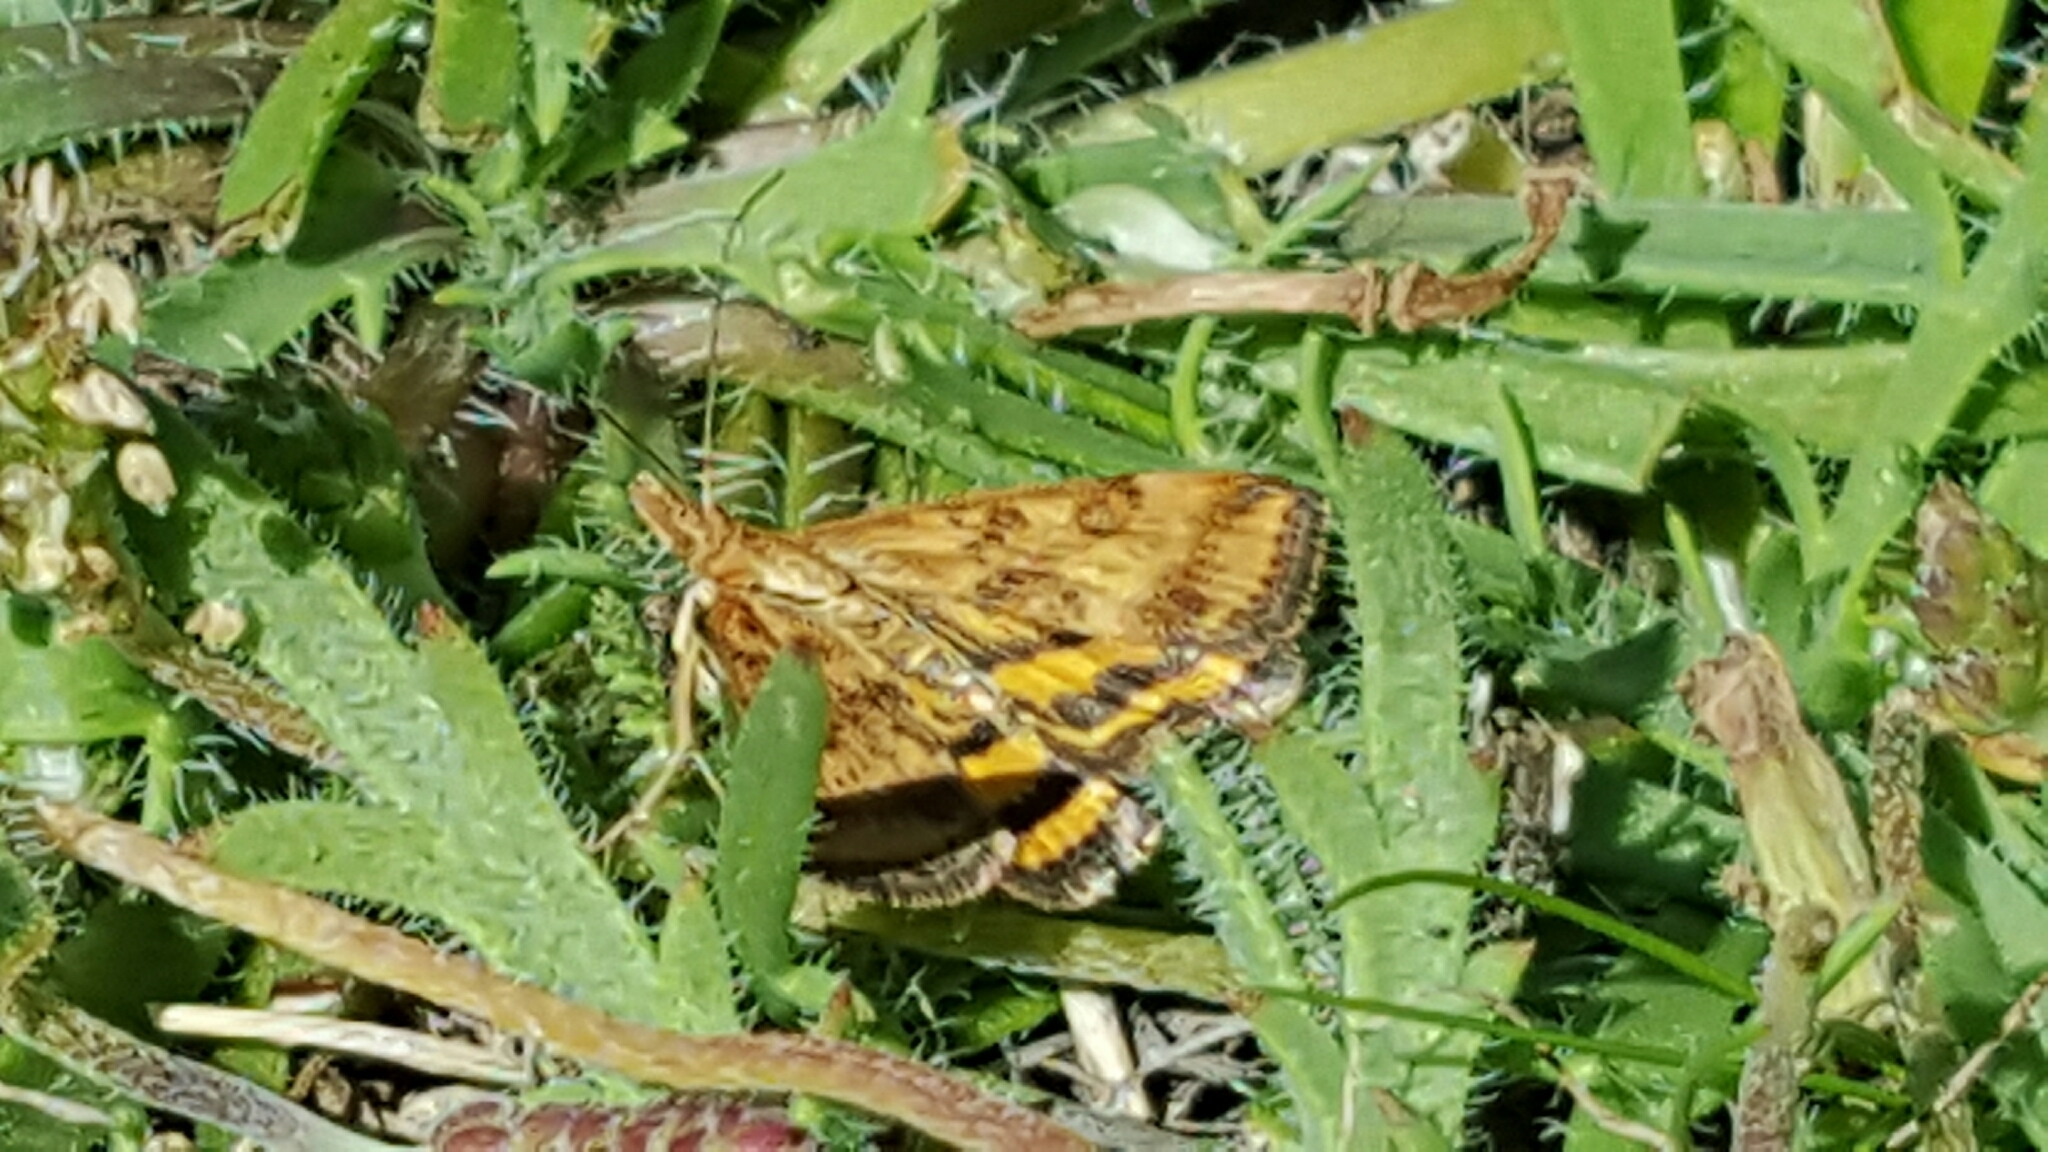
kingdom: Animalia
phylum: Arthropoda
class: Insecta
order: Lepidoptera
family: Crambidae
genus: Pyrausta
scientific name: Pyrausta subsequalis
